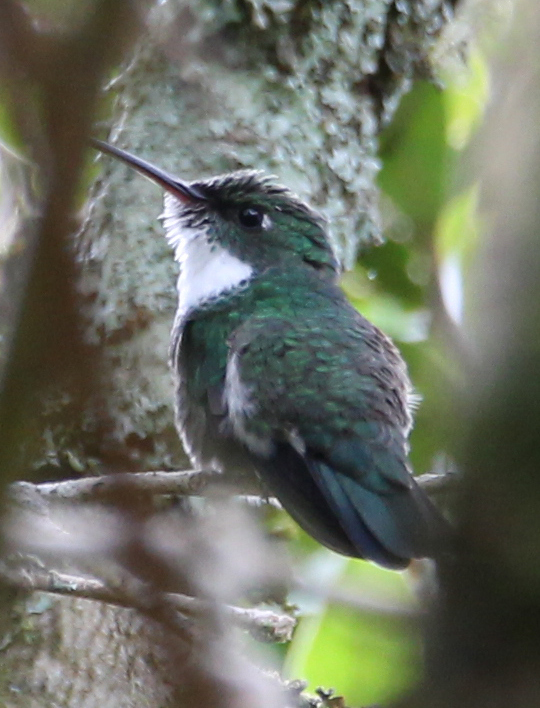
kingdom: Animalia
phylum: Chordata
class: Aves
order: Apodiformes
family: Trochilidae
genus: Leucochloris
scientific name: Leucochloris albicollis
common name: White-throated hummingbird
